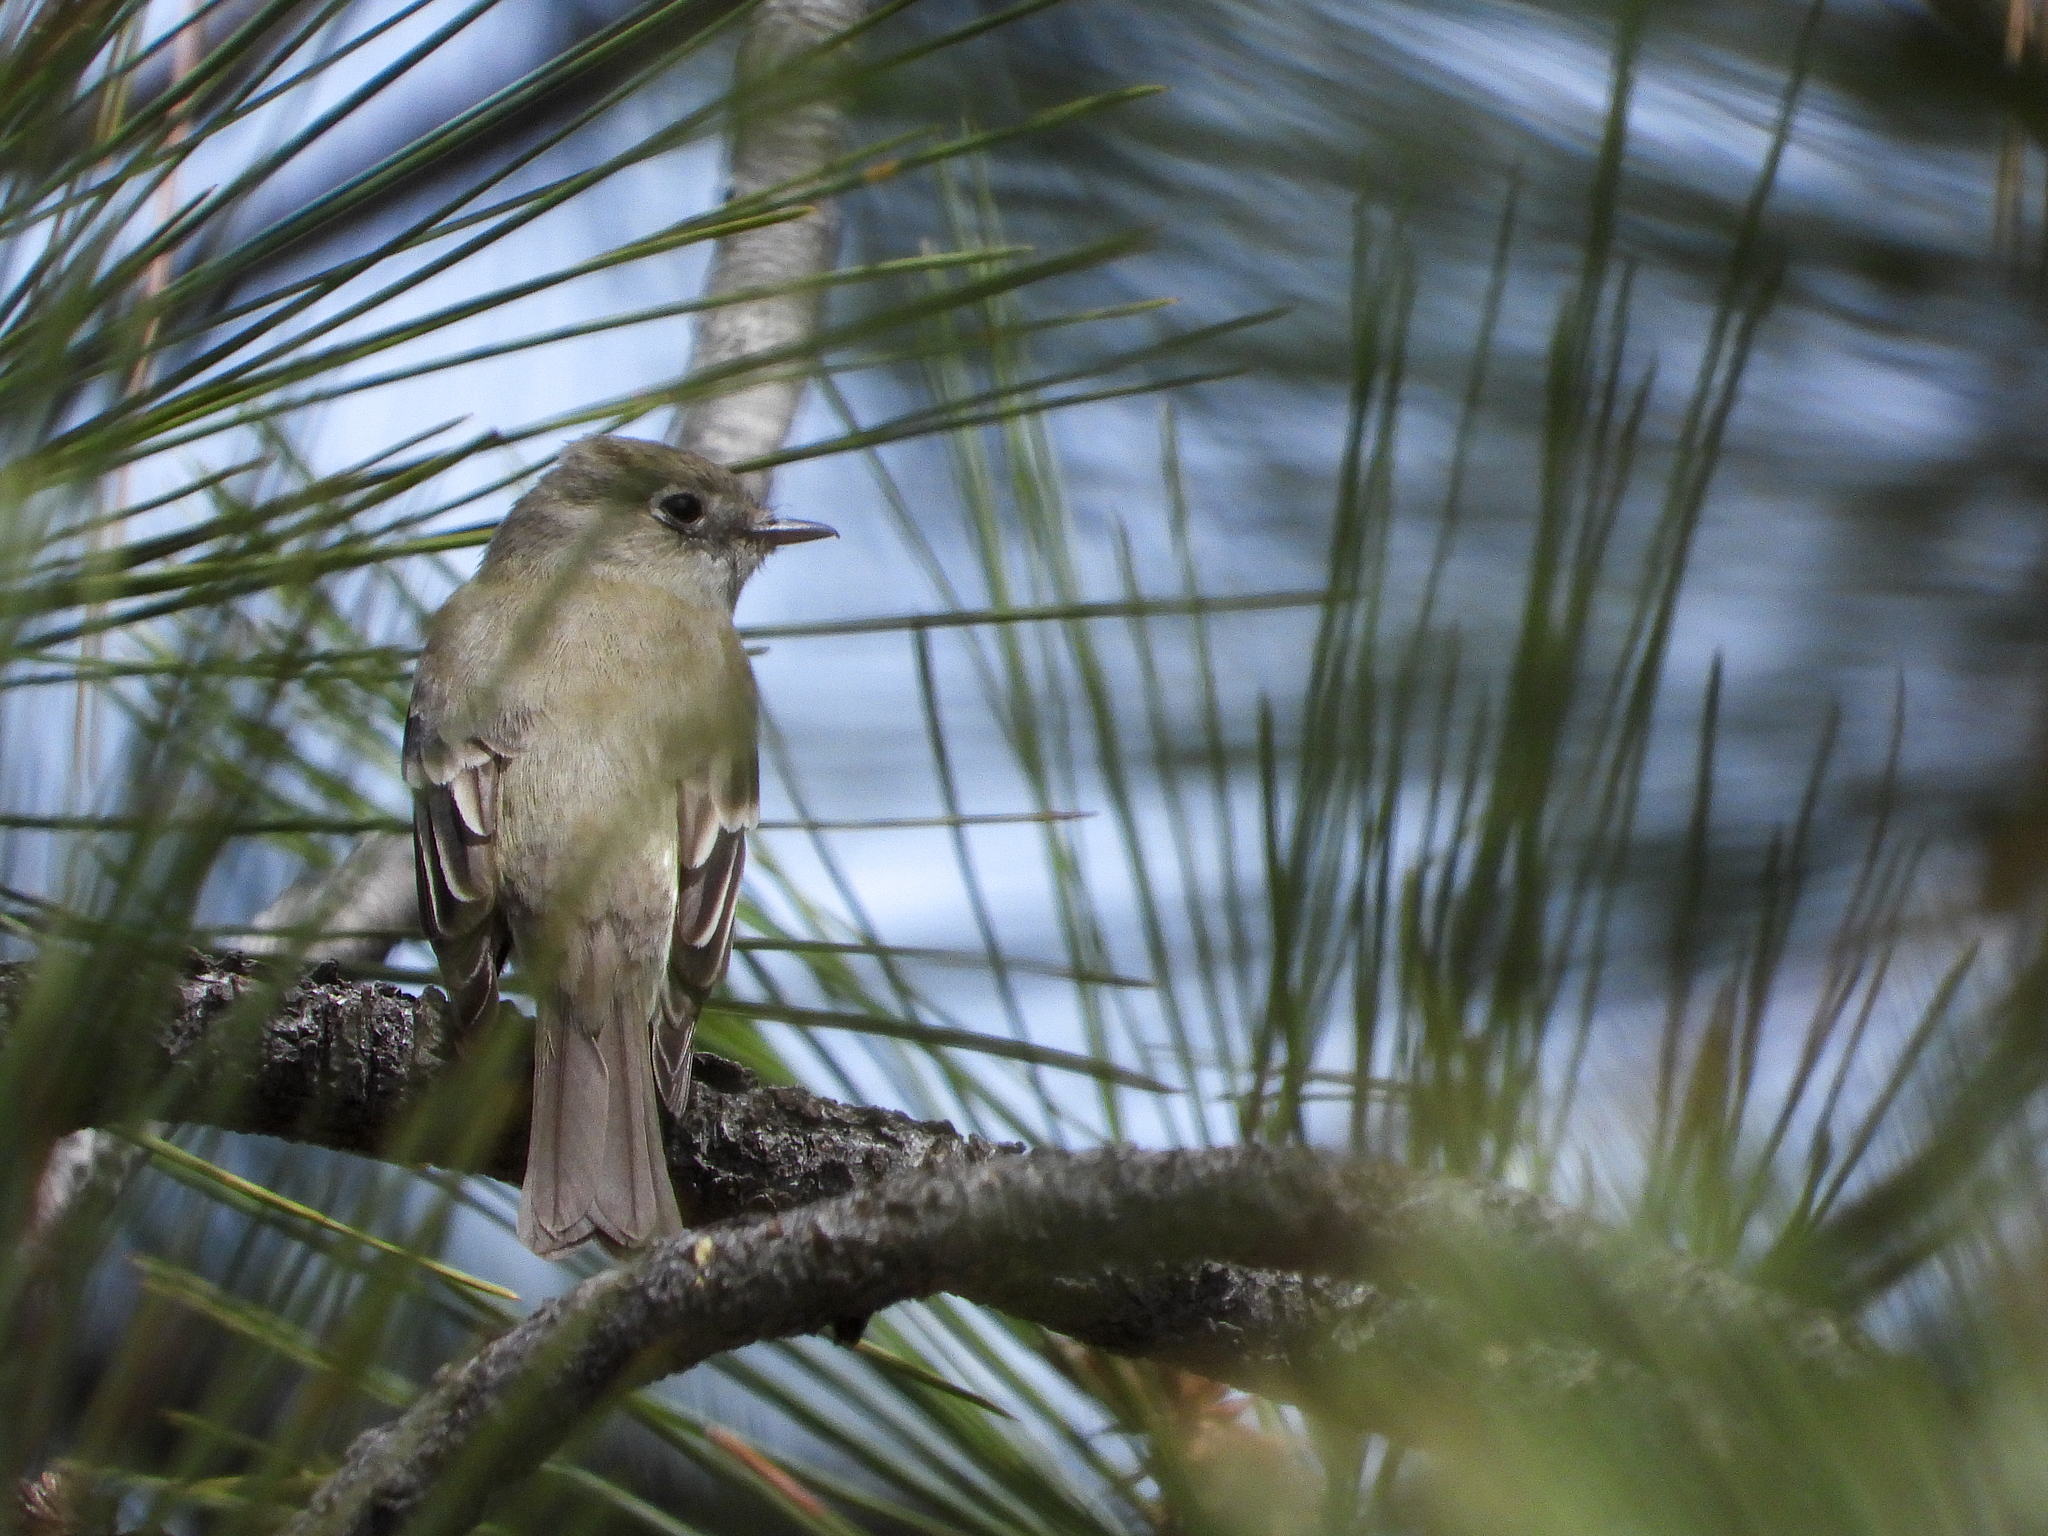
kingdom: Animalia
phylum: Chordata
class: Aves
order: Passeriformes
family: Tyrannidae
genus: Empidonax
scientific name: Empidonax hammondii
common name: Hammond's flycatcher
